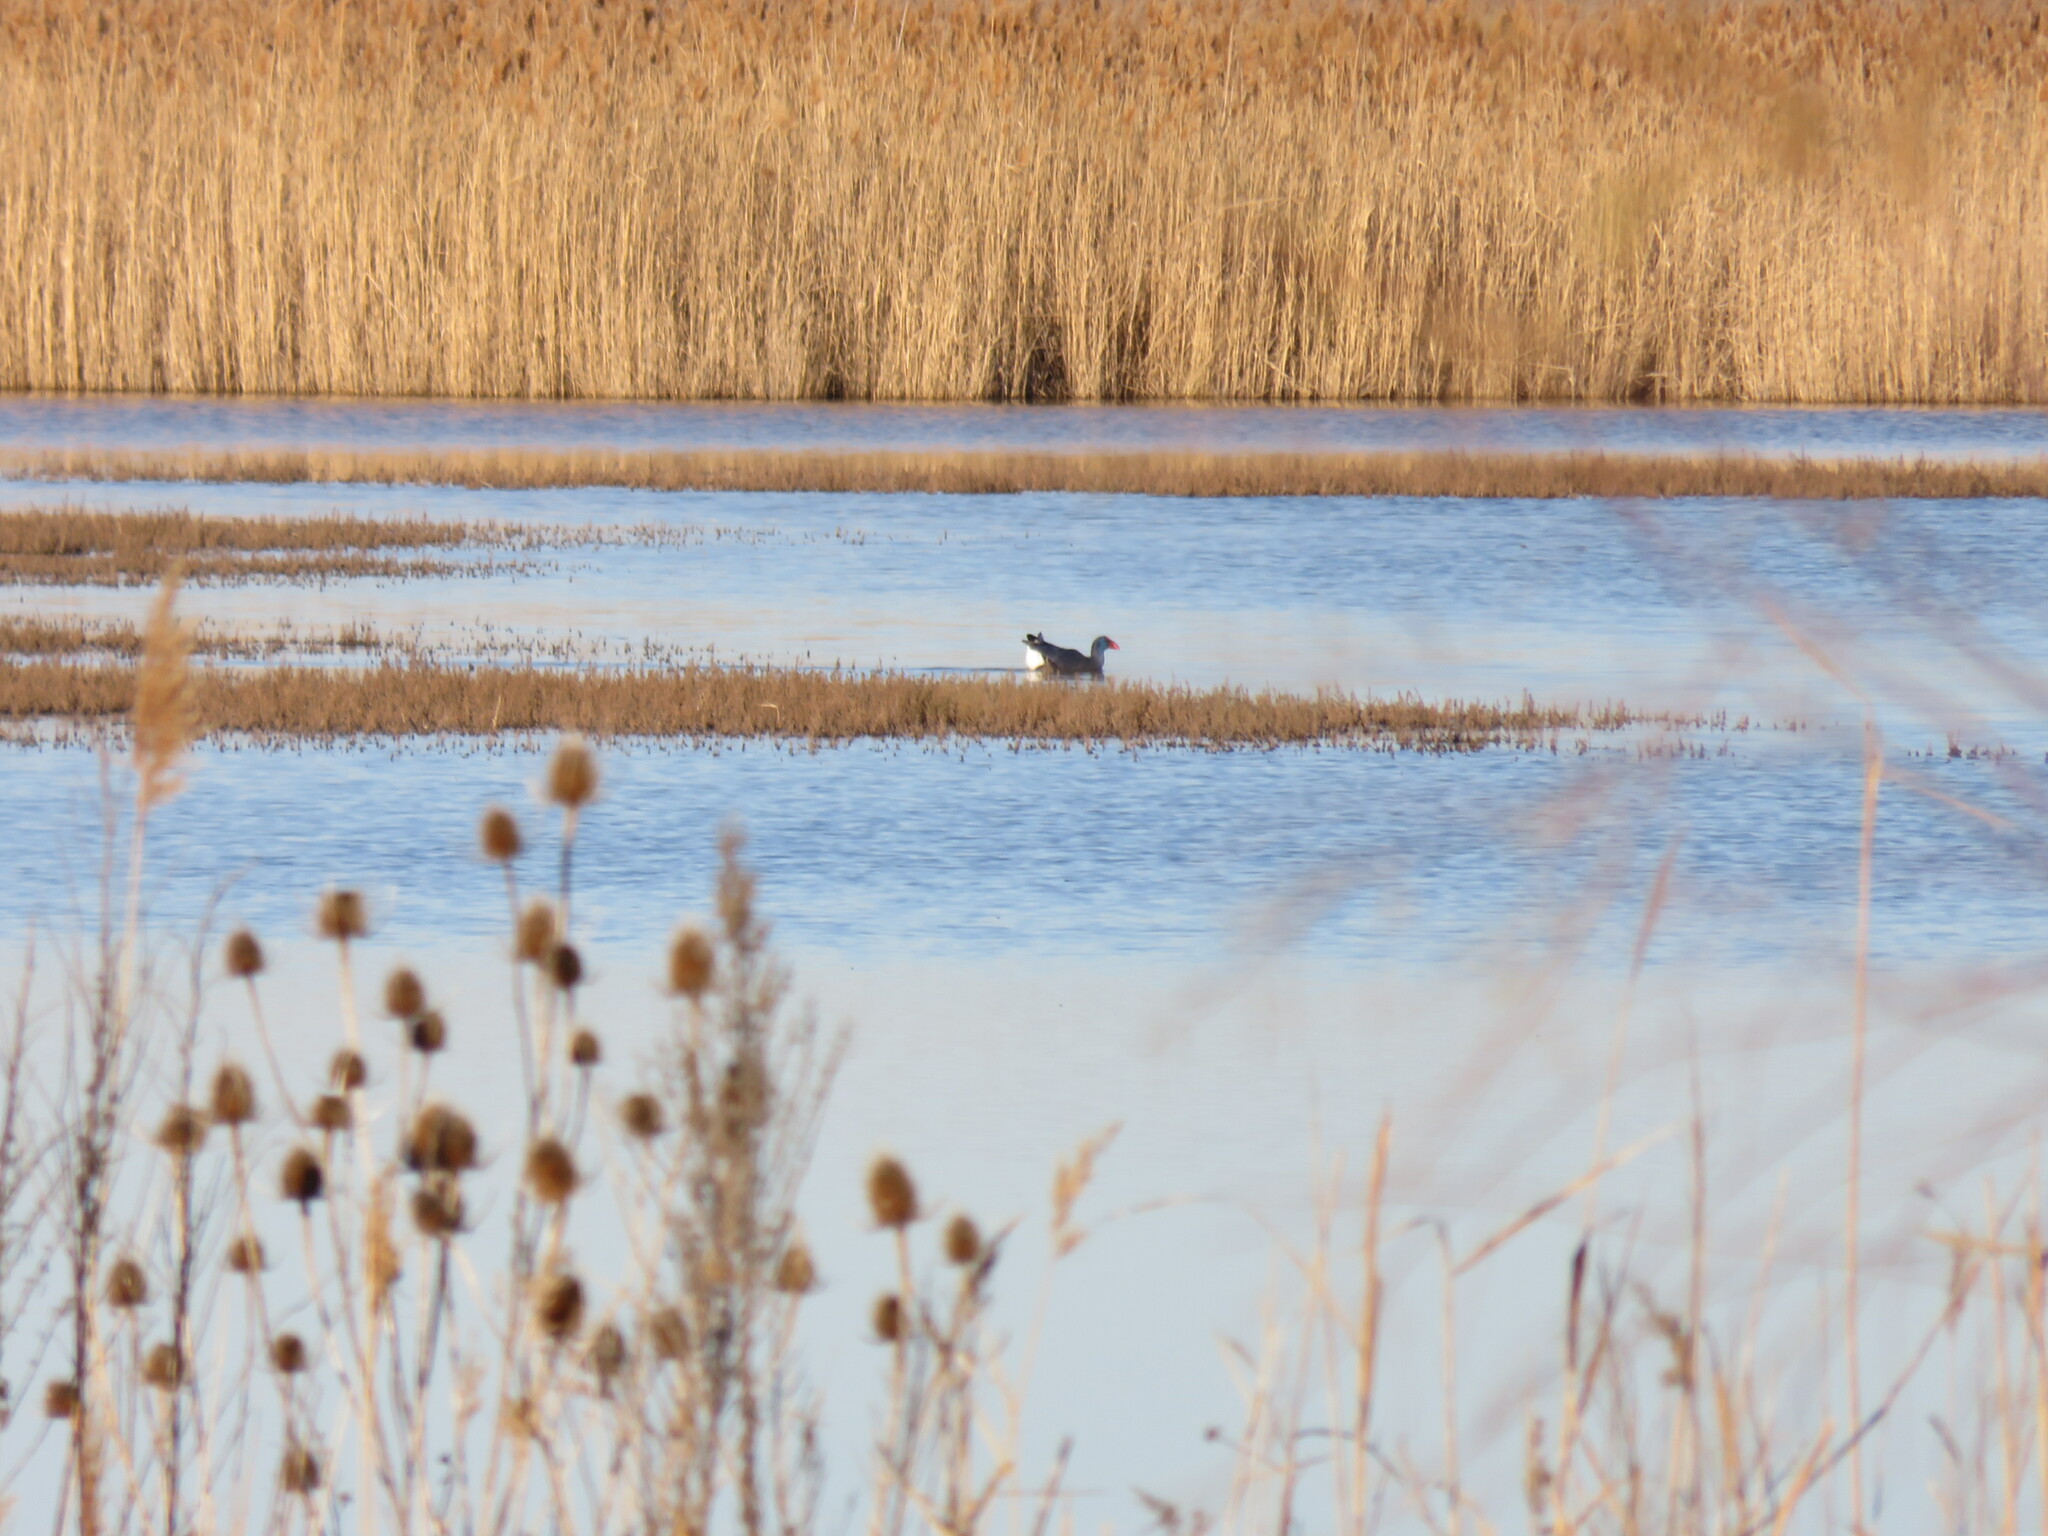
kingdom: Animalia
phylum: Chordata
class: Aves
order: Gruiformes
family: Rallidae
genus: Porphyrio
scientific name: Porphyrio porphyrio
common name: Purple swamphen
